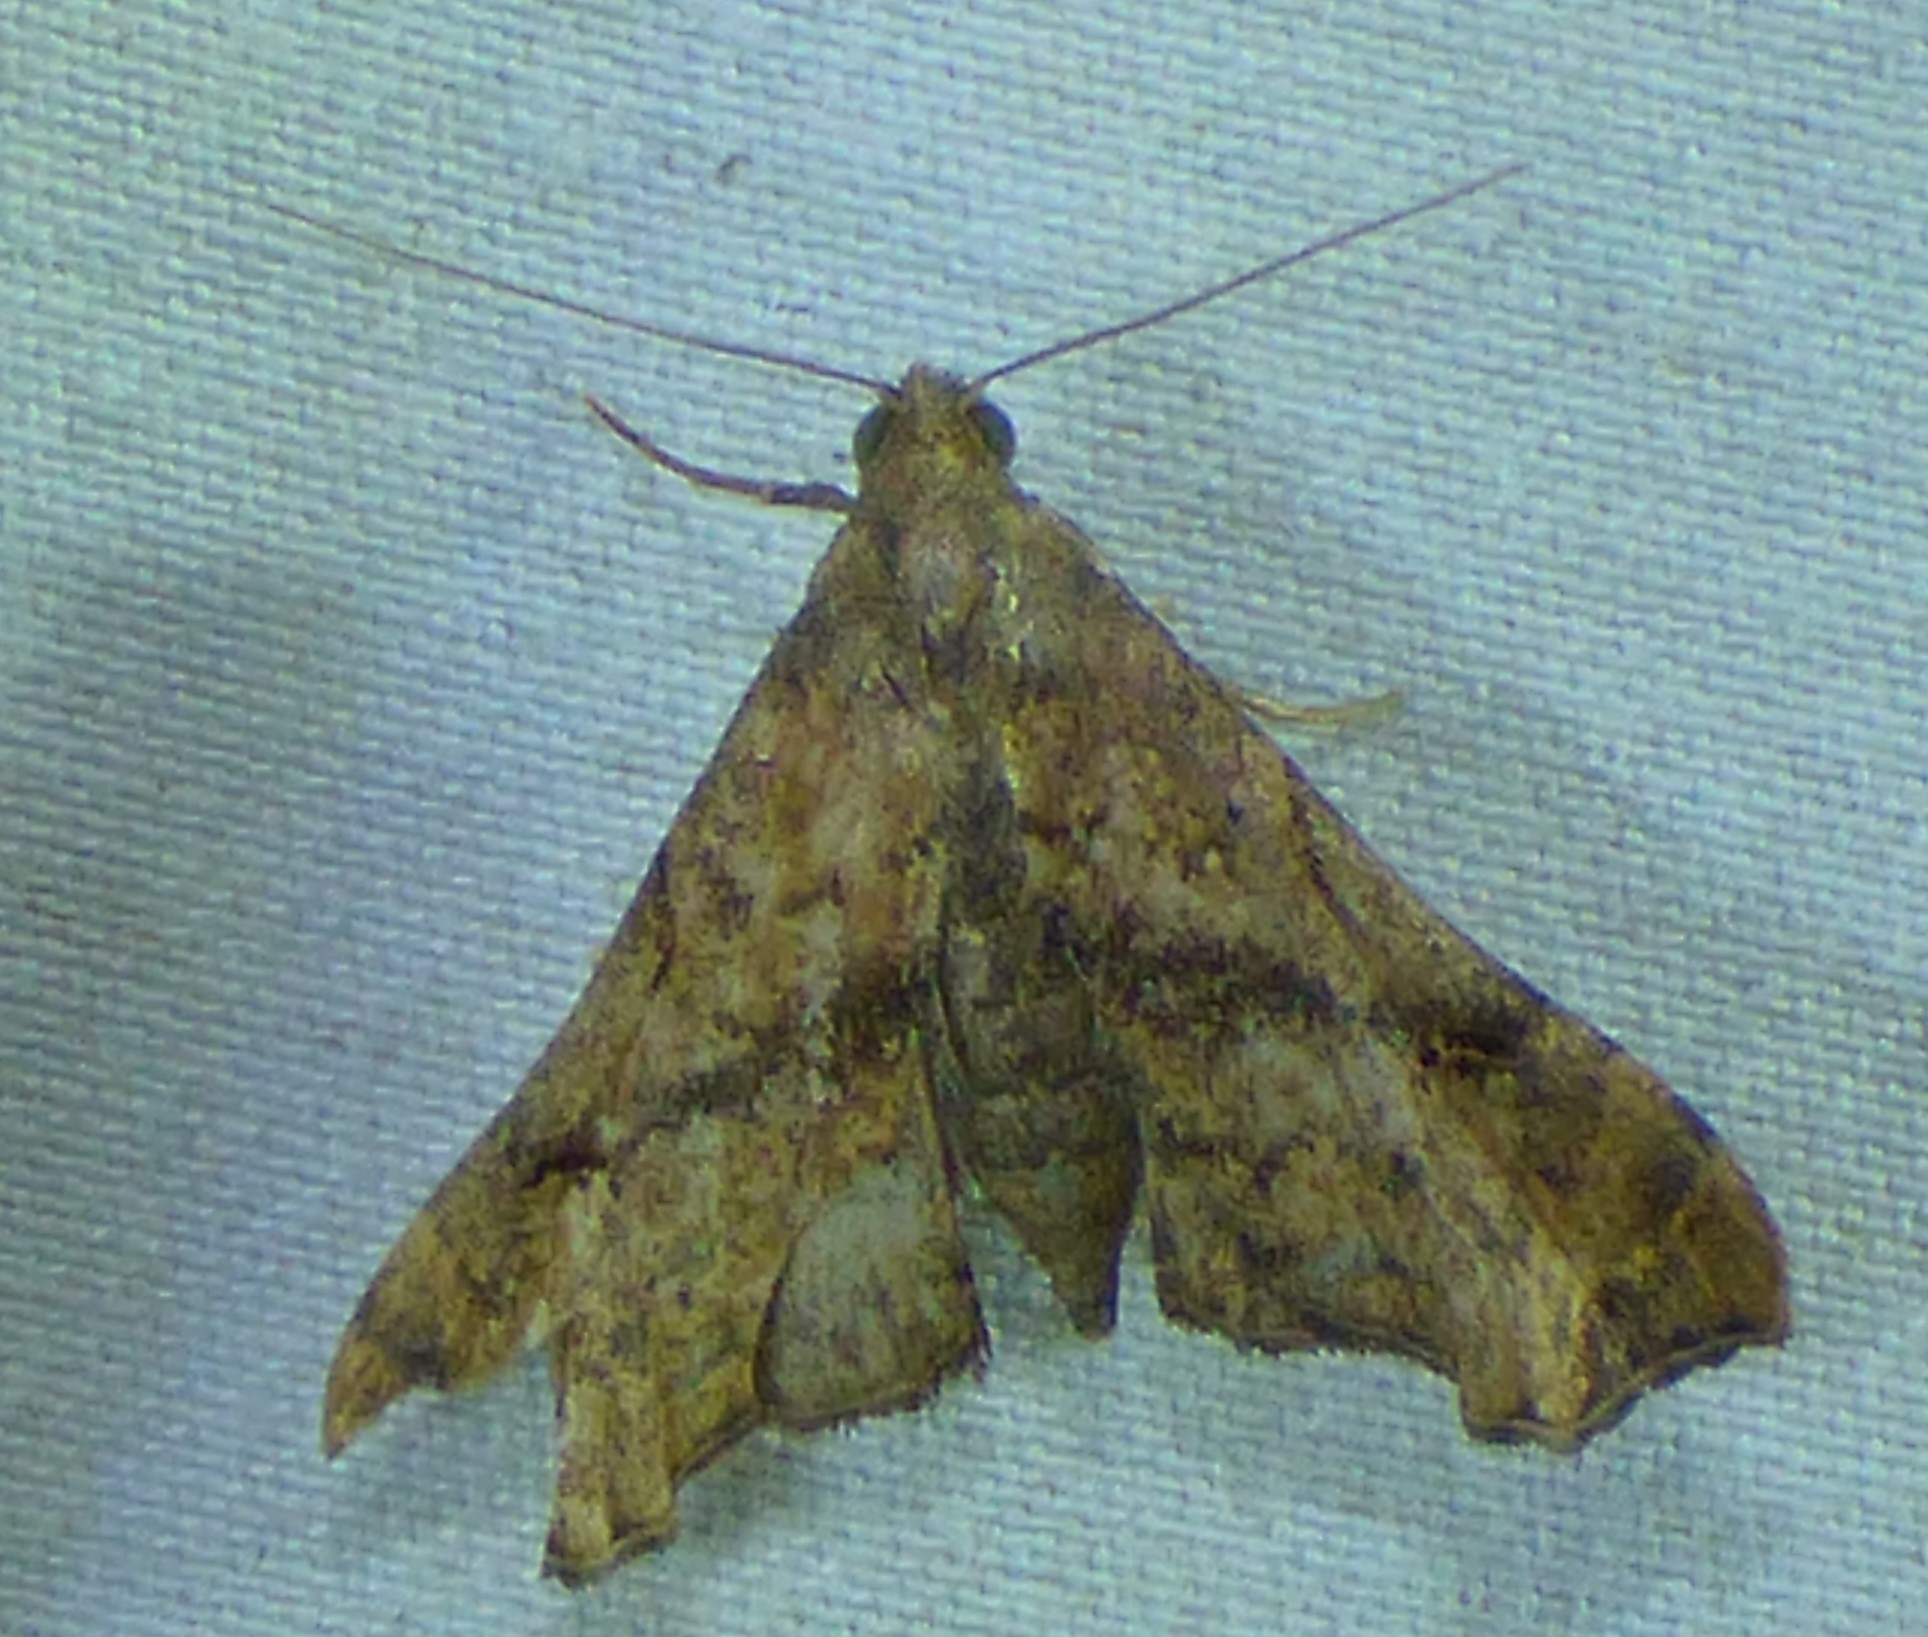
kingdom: Animalia
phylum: Arthropoda
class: Insecta
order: Lepidoptera
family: Erebidae
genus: Palthis
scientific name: Palthis asopialis
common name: Faint-spotted palthis moth
